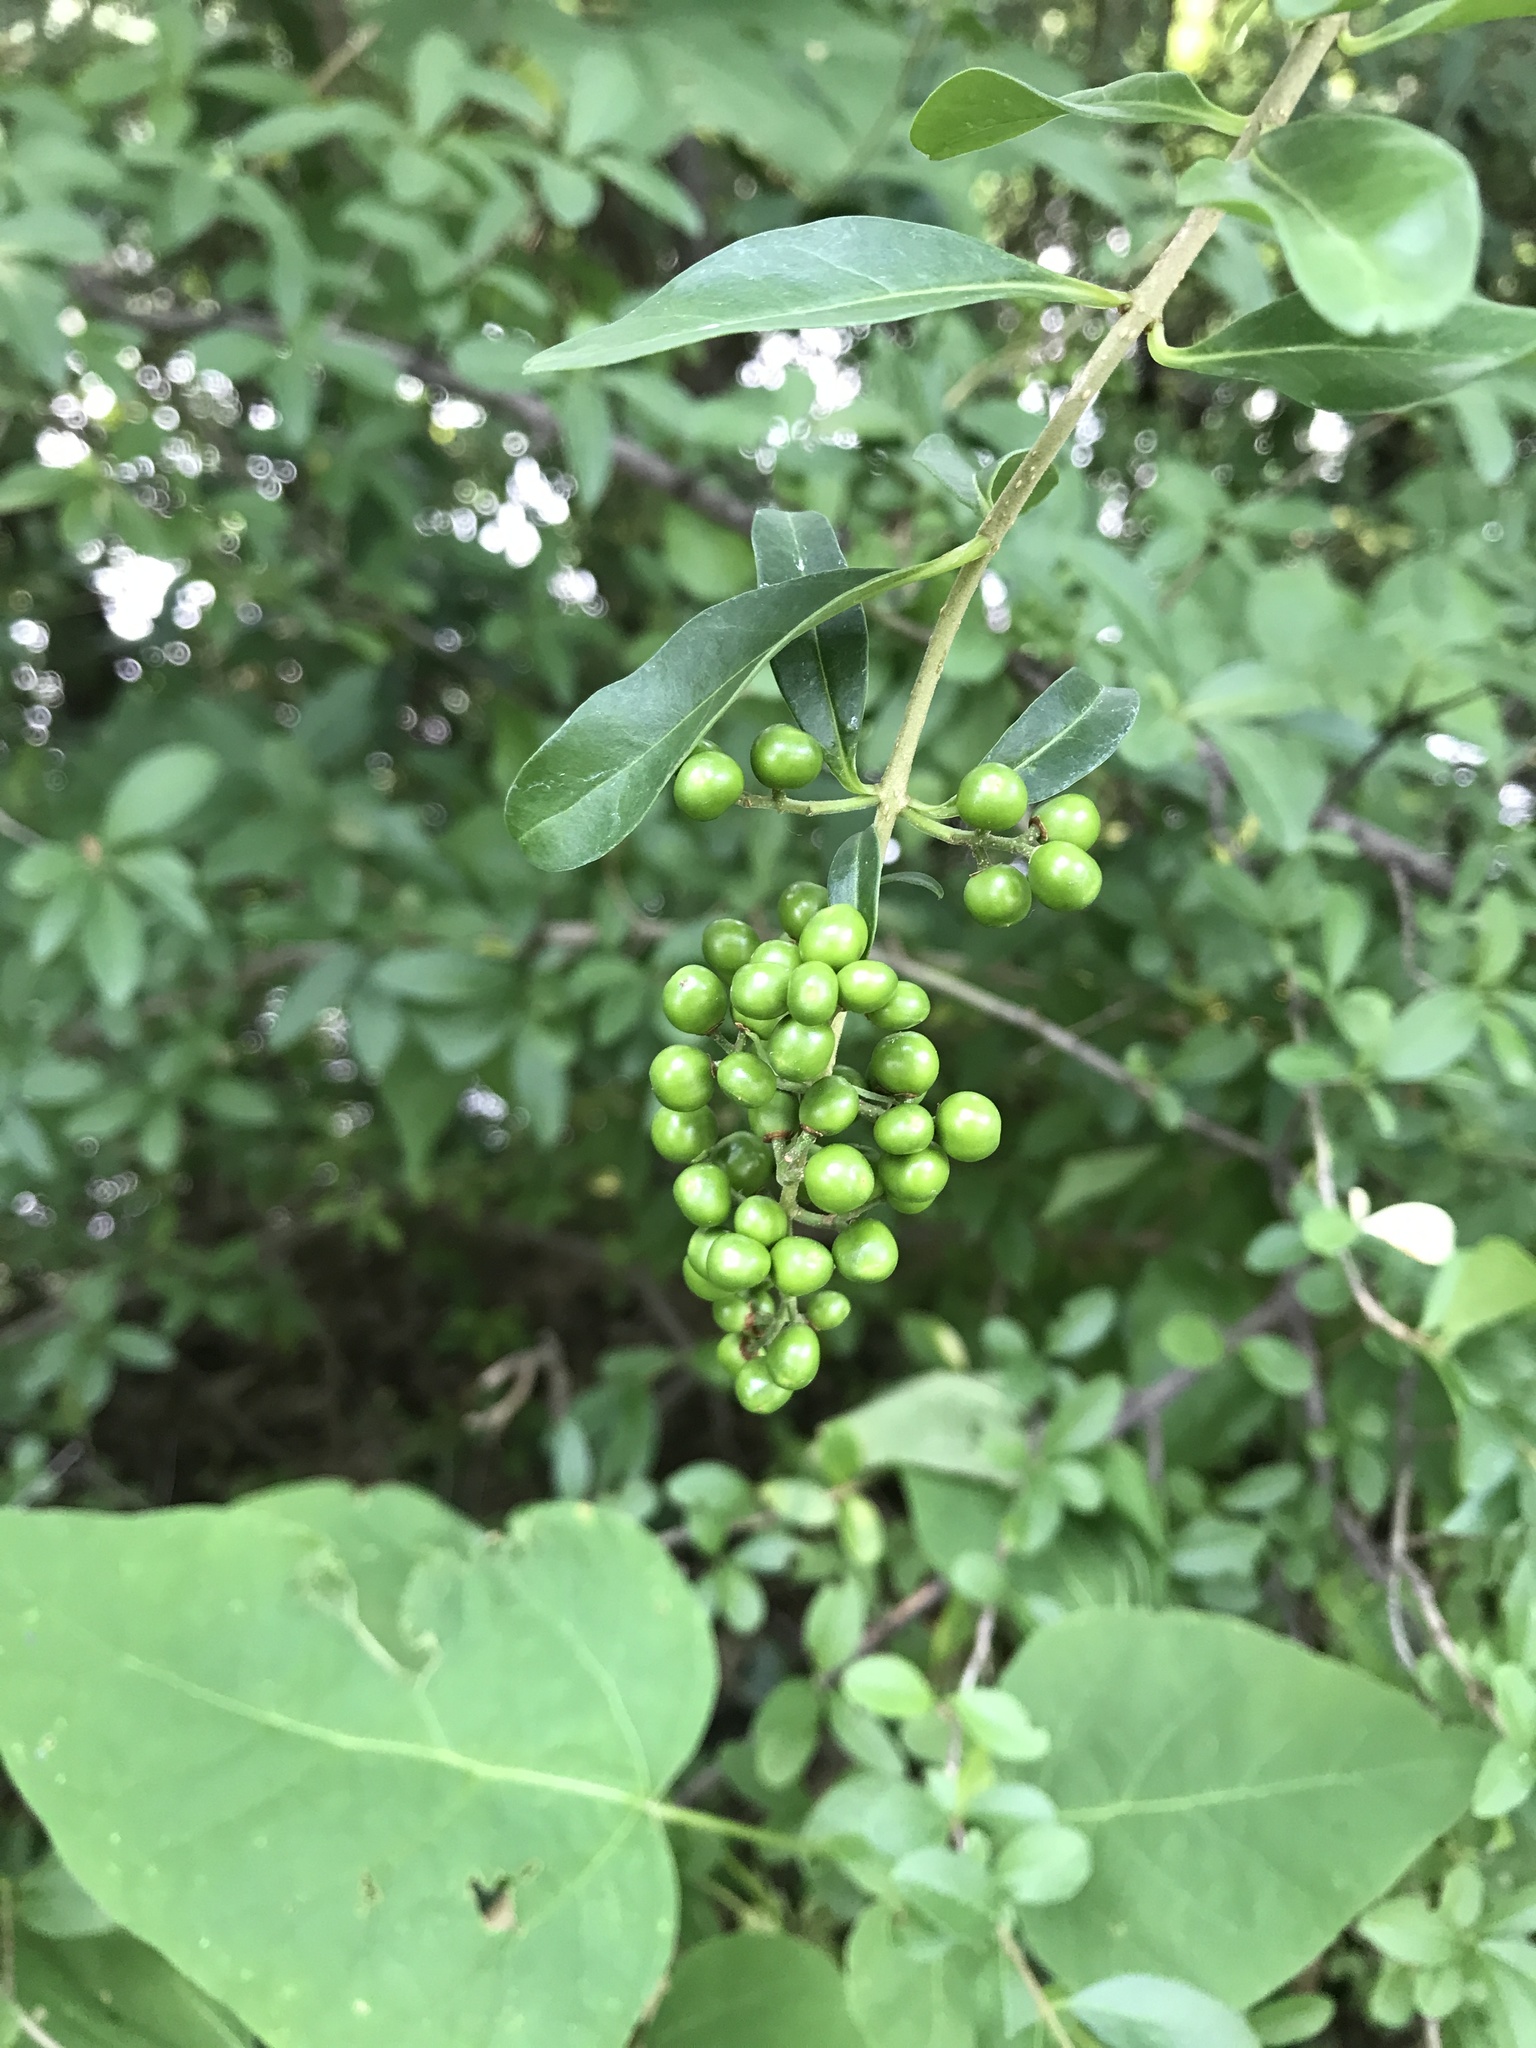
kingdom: Plantae
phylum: Tracheophyta
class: Magnoliopsida
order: Lamiales
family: Oleaceae
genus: Ligustrum
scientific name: Ligustrum vulgare
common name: Wild privet
